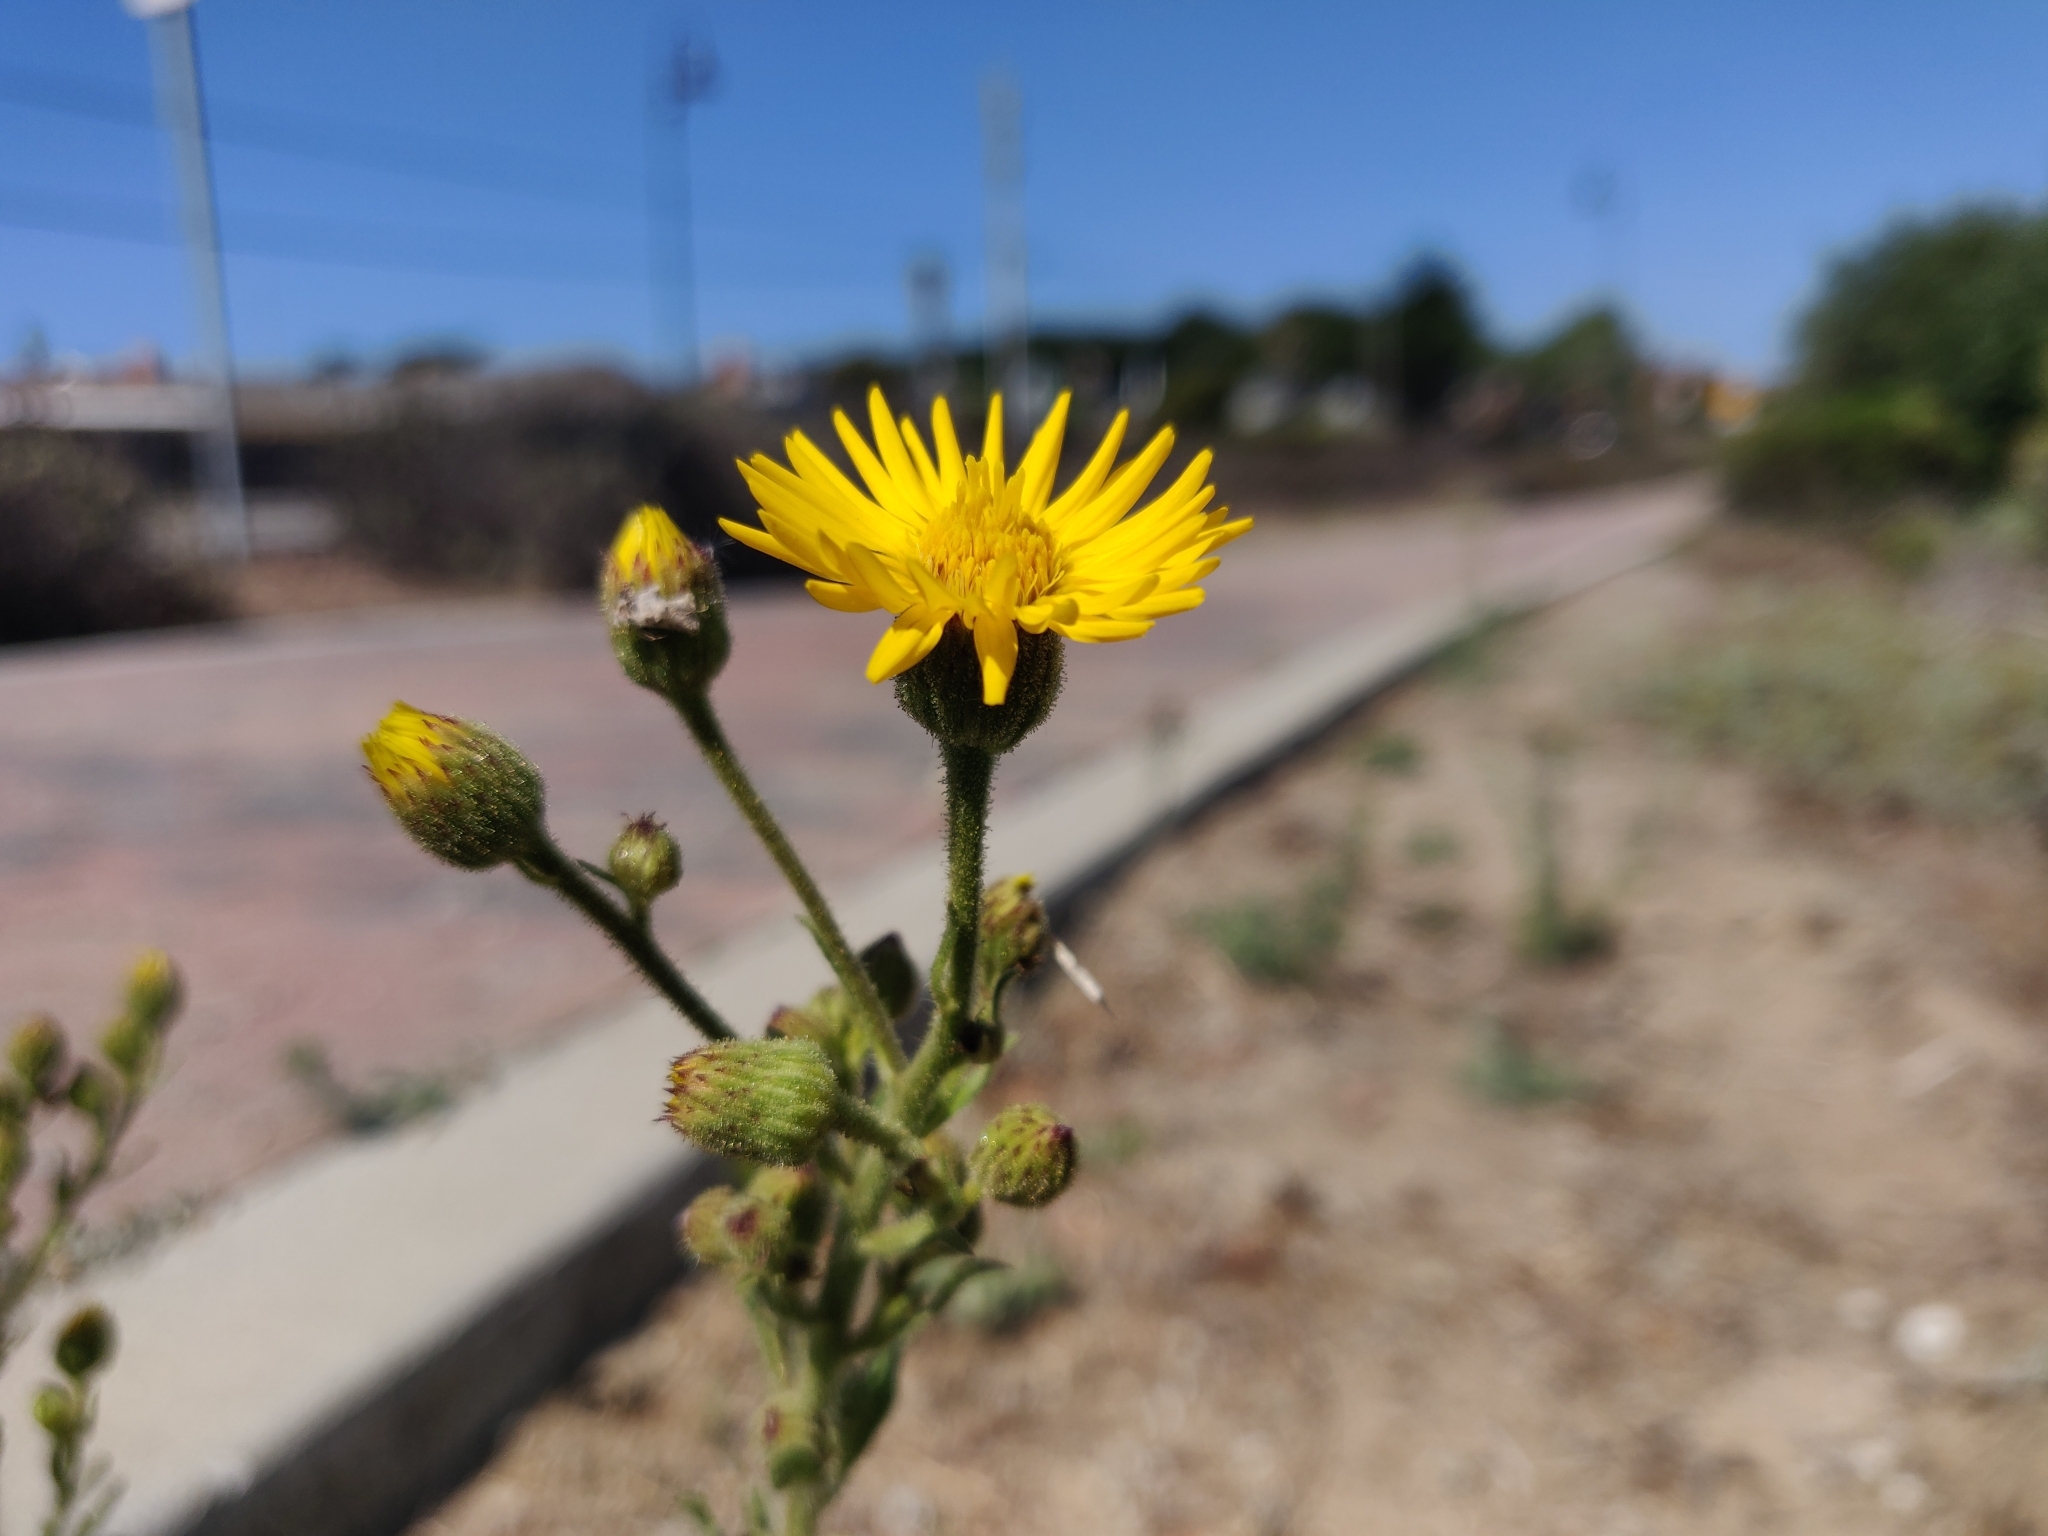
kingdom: Plantae
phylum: Tracheophyta
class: Magnoliopsida
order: Asterales
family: Asteraceae
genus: Heterotheca
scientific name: Heterotheca grandiflora
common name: Telegraphweed
